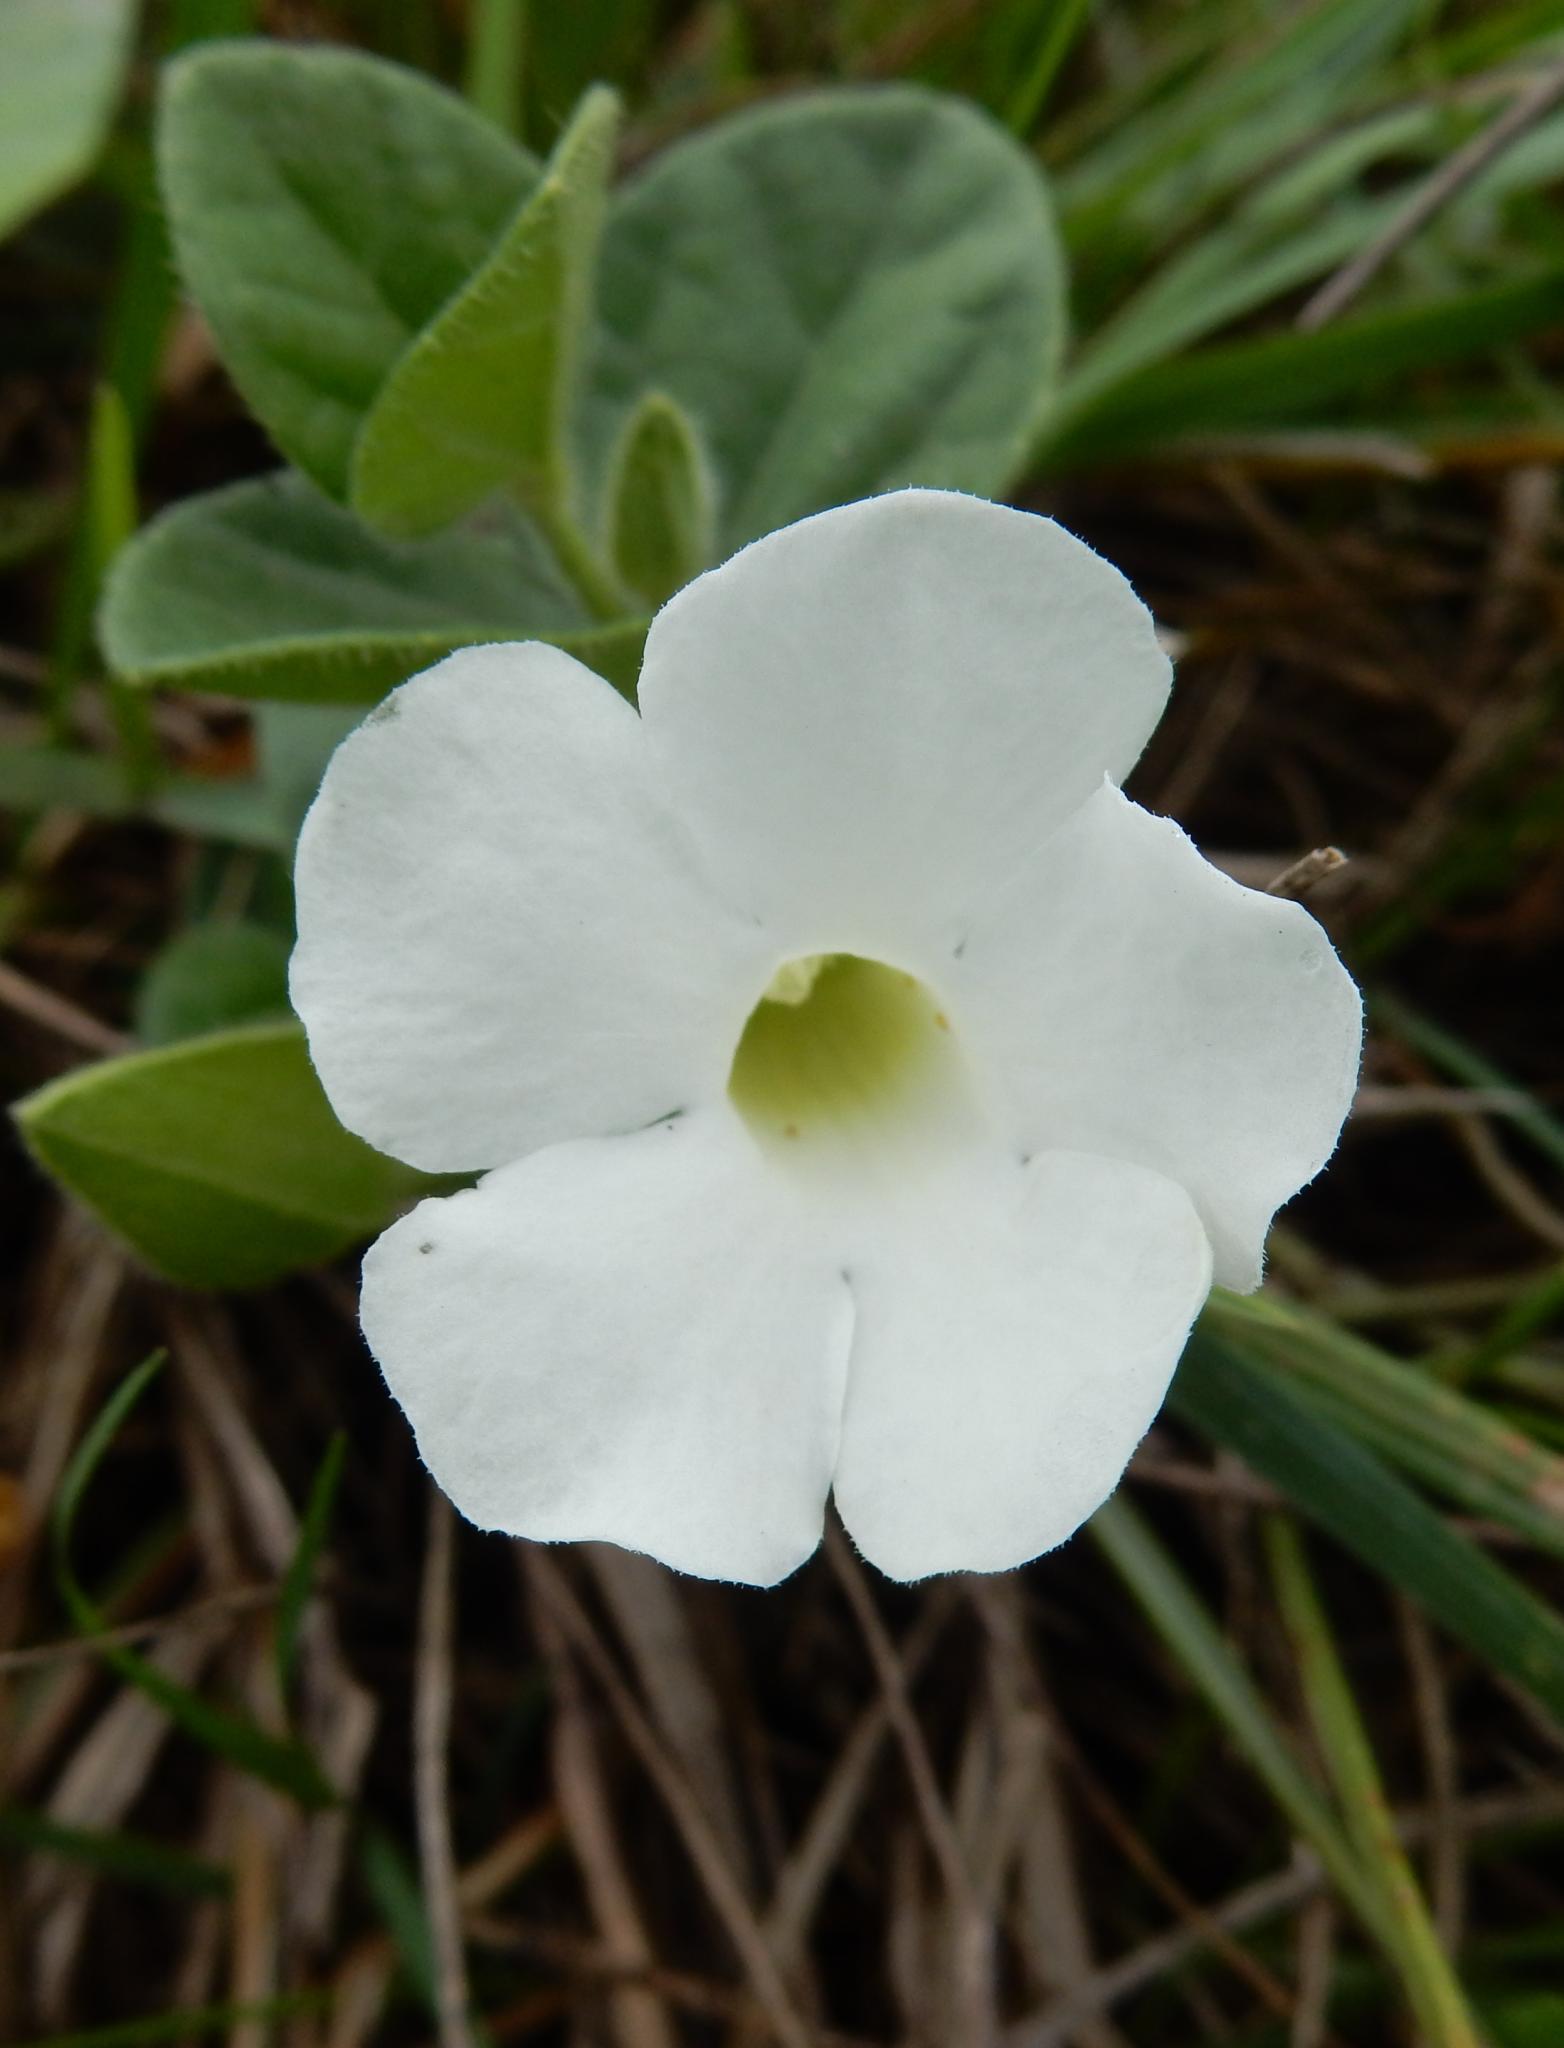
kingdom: Plantae
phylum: Tracheophyta
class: Magnoliopsida
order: Lamiales
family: Acanthaceae
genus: Thunbergia
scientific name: Thunbergia capensis
